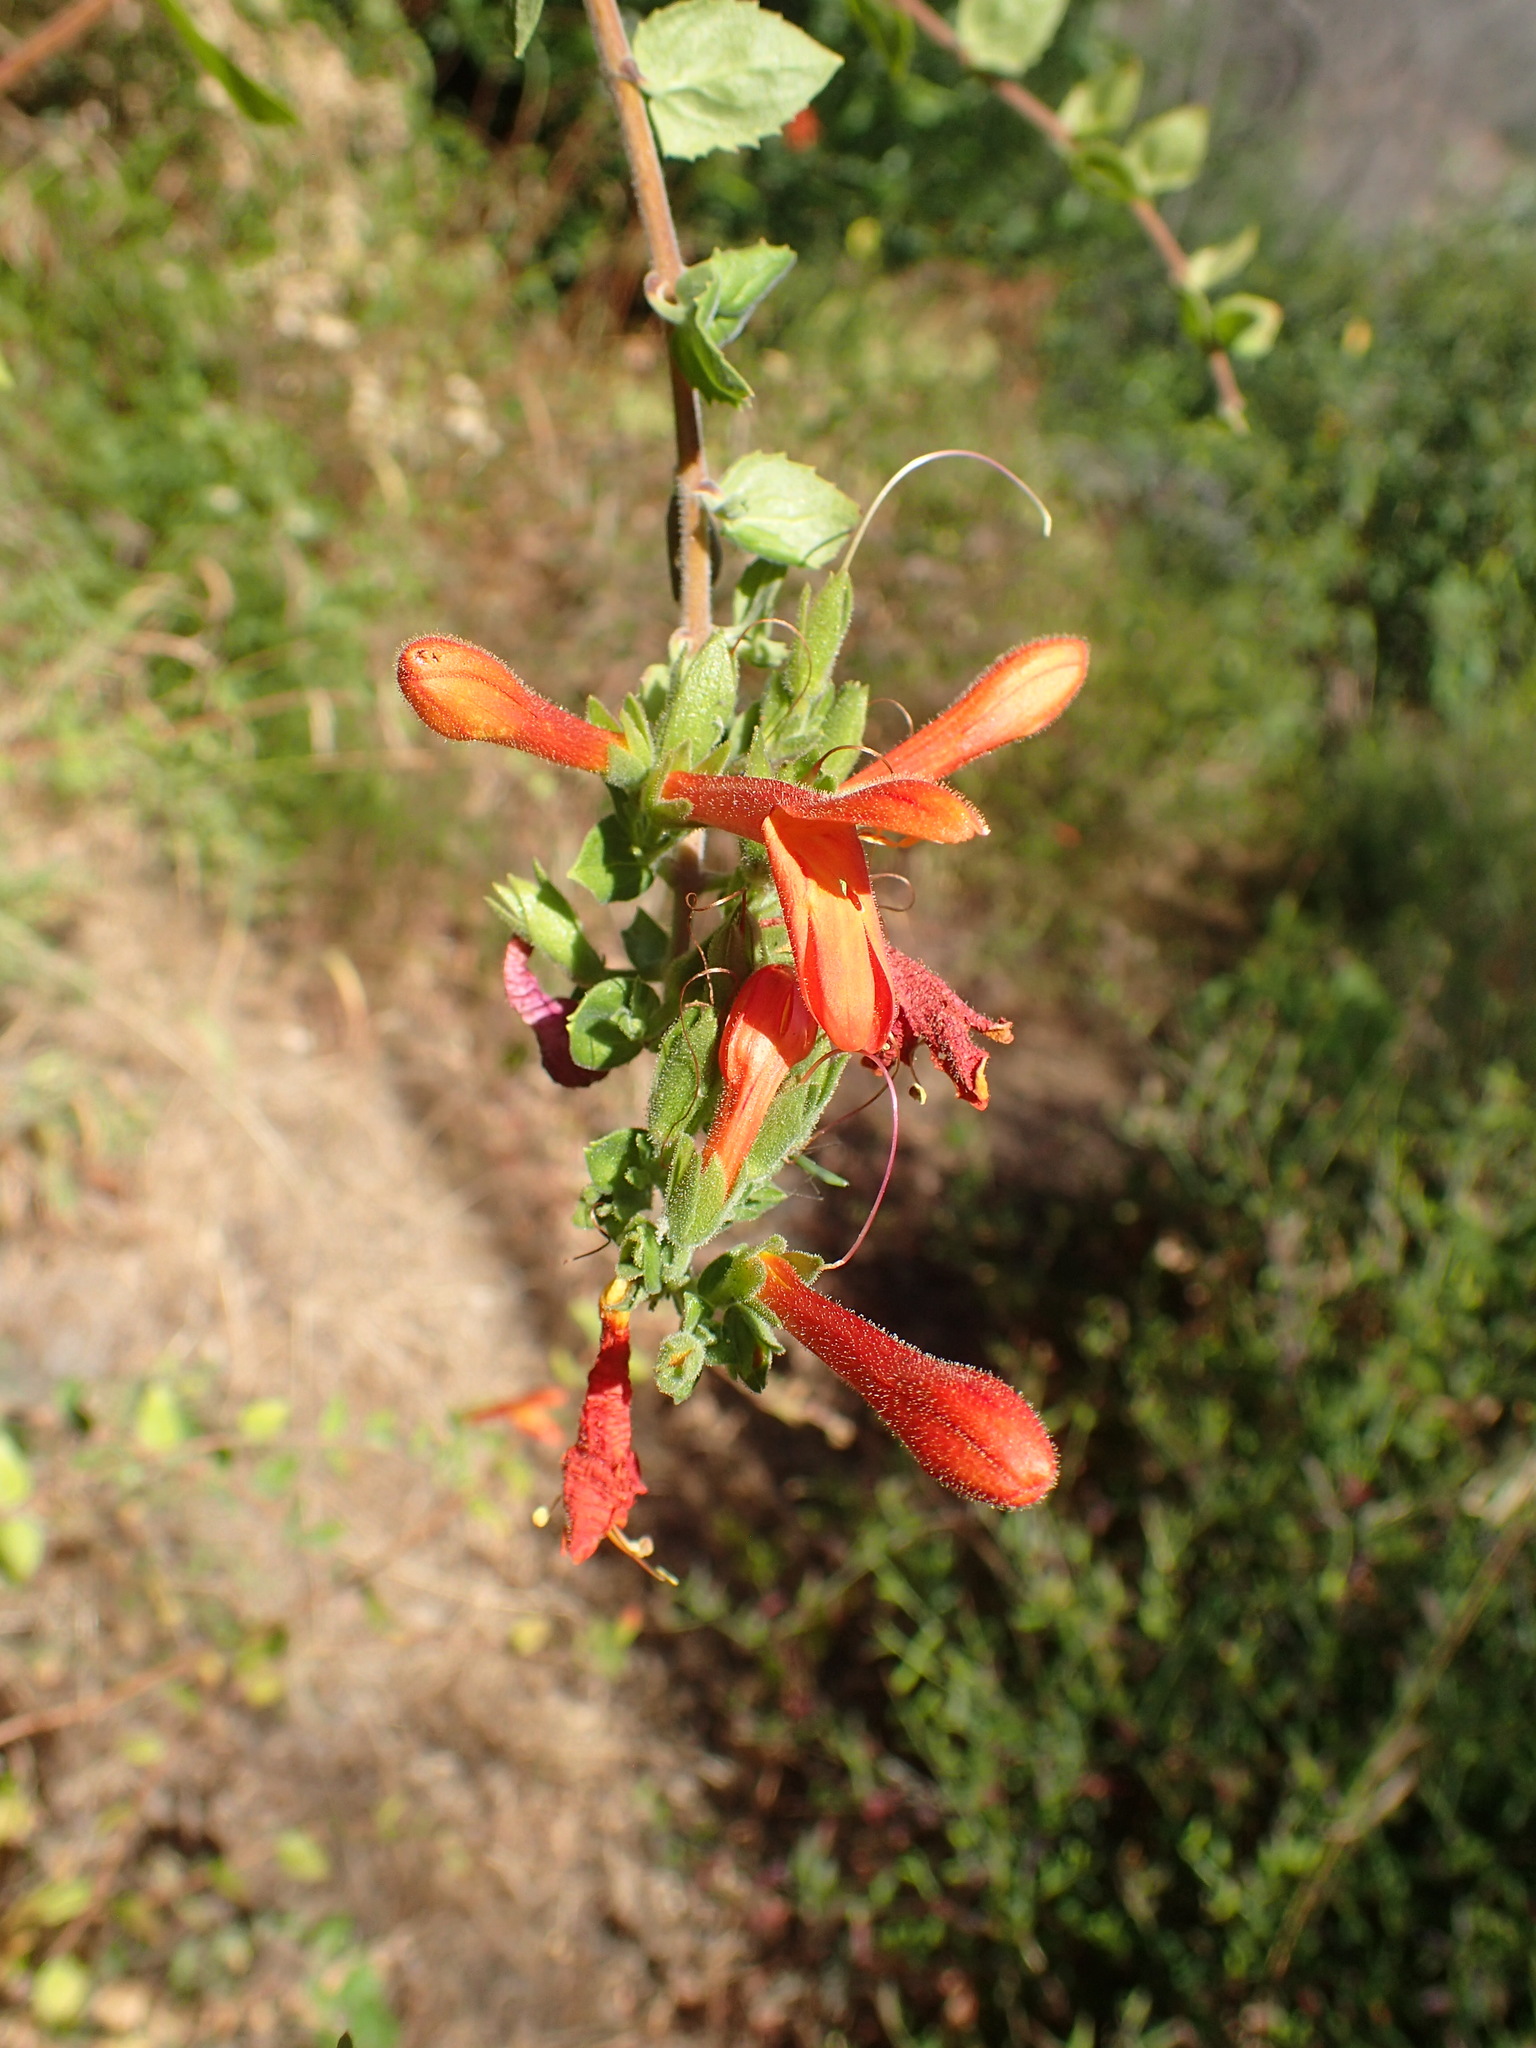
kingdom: Plantae
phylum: Tracheophyta
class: Magnoliopsida
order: Lamiales
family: Plantaginaceae
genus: Keckiella
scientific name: Keckiella cordifolia
